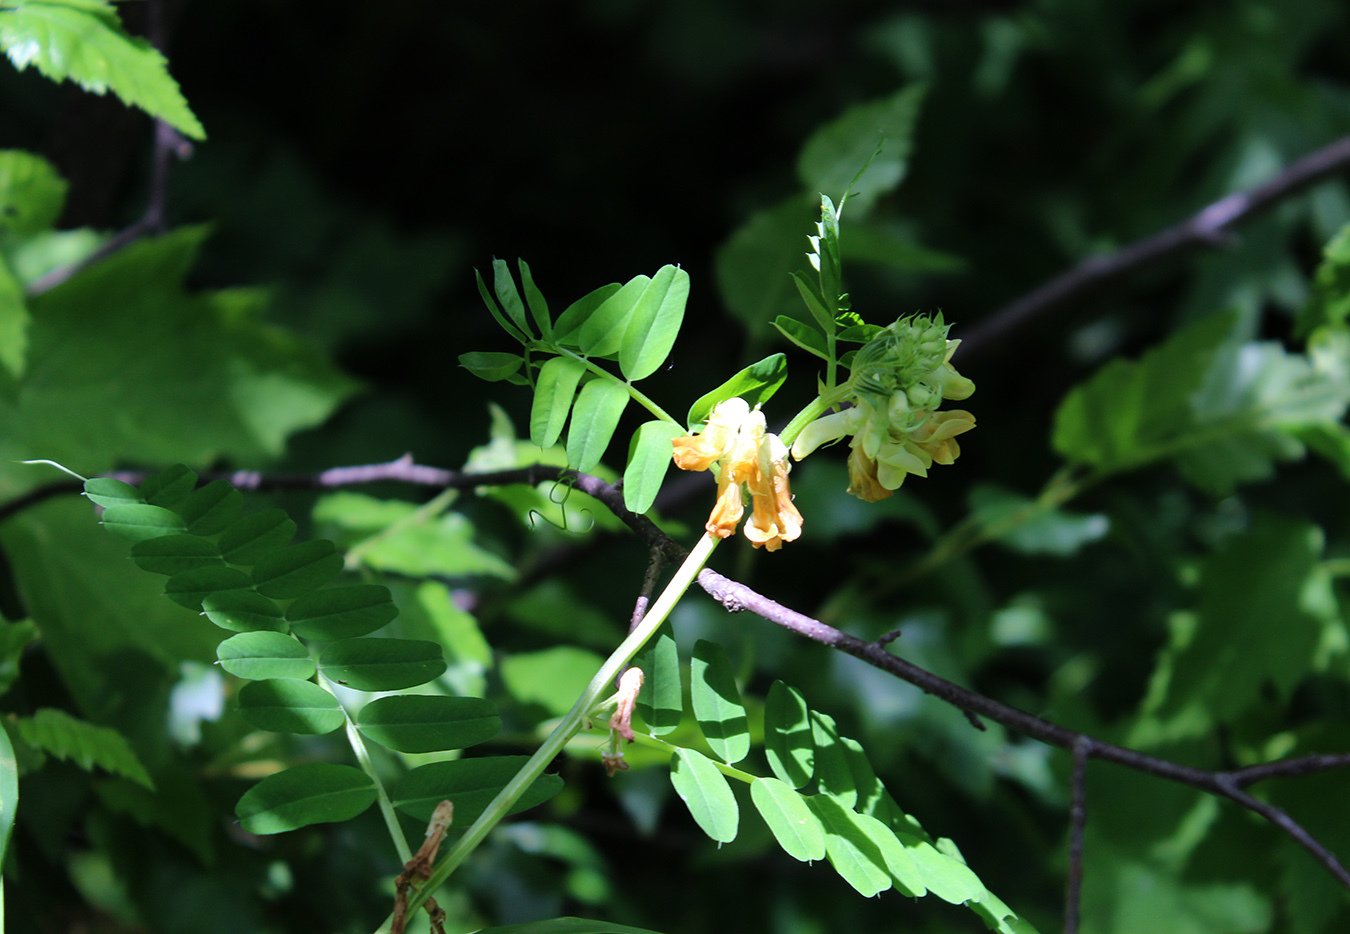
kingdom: Plantae
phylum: Tracheophyta
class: Magnoliopsida
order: Fabales
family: Fabaceae
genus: Vicia
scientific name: Vicia balansae
